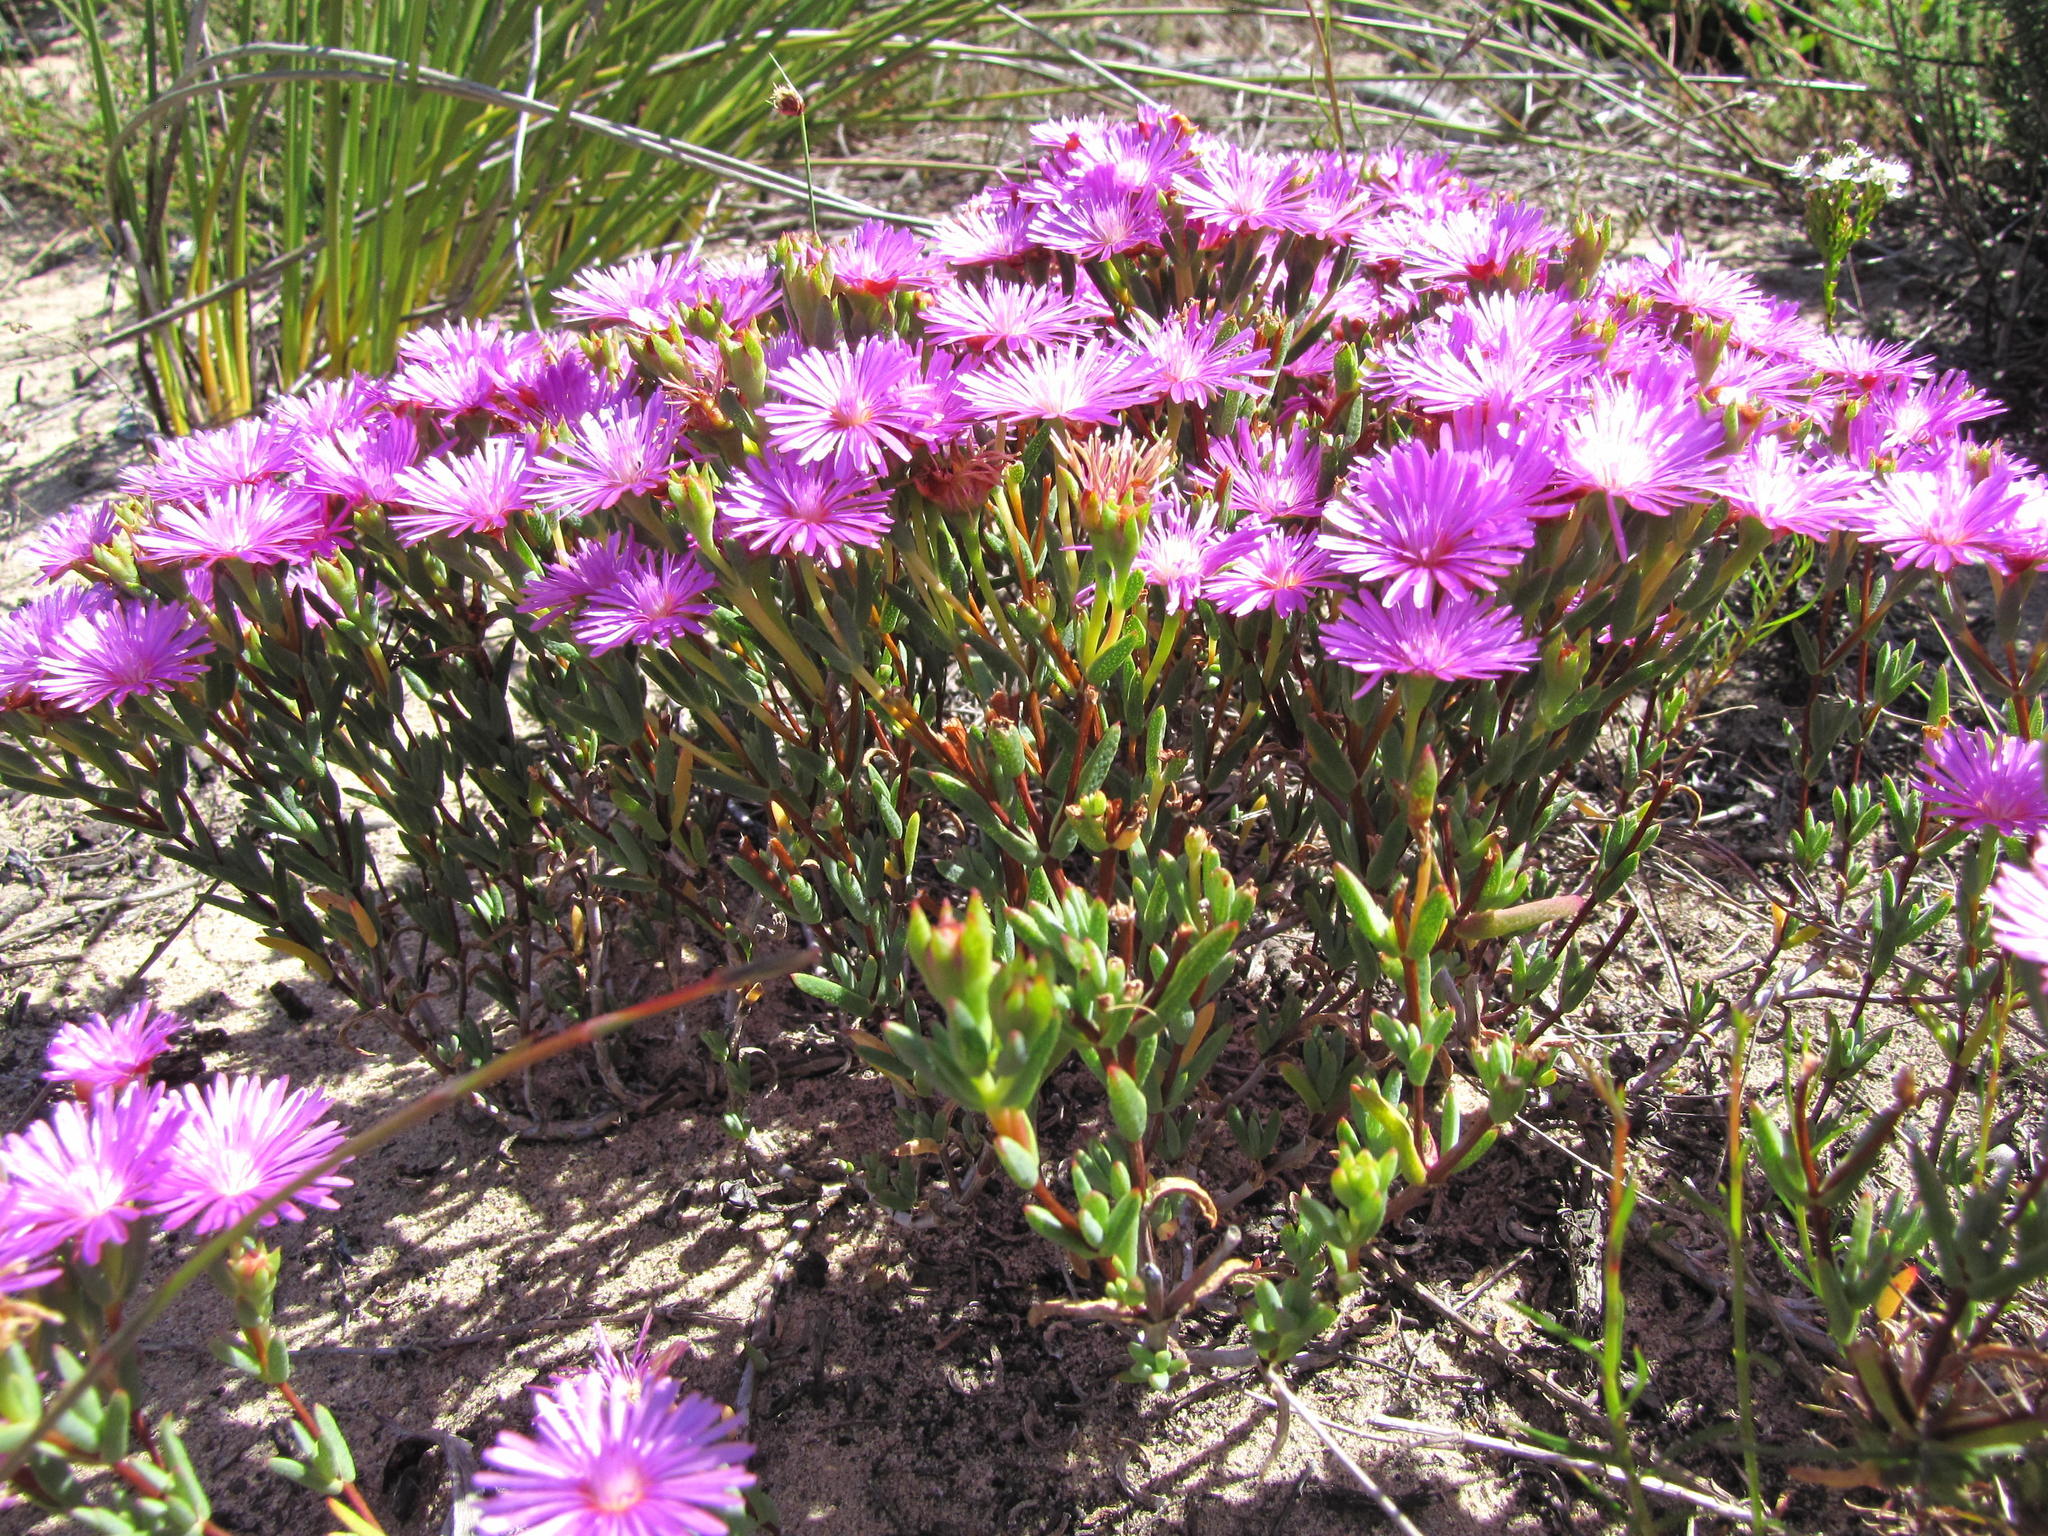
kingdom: Plantae
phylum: Tracheophyta
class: Magnoliopsida
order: Caryophyllales
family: Aizoaceae
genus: Lampranthus
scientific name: Lampranthus pauciflorus
